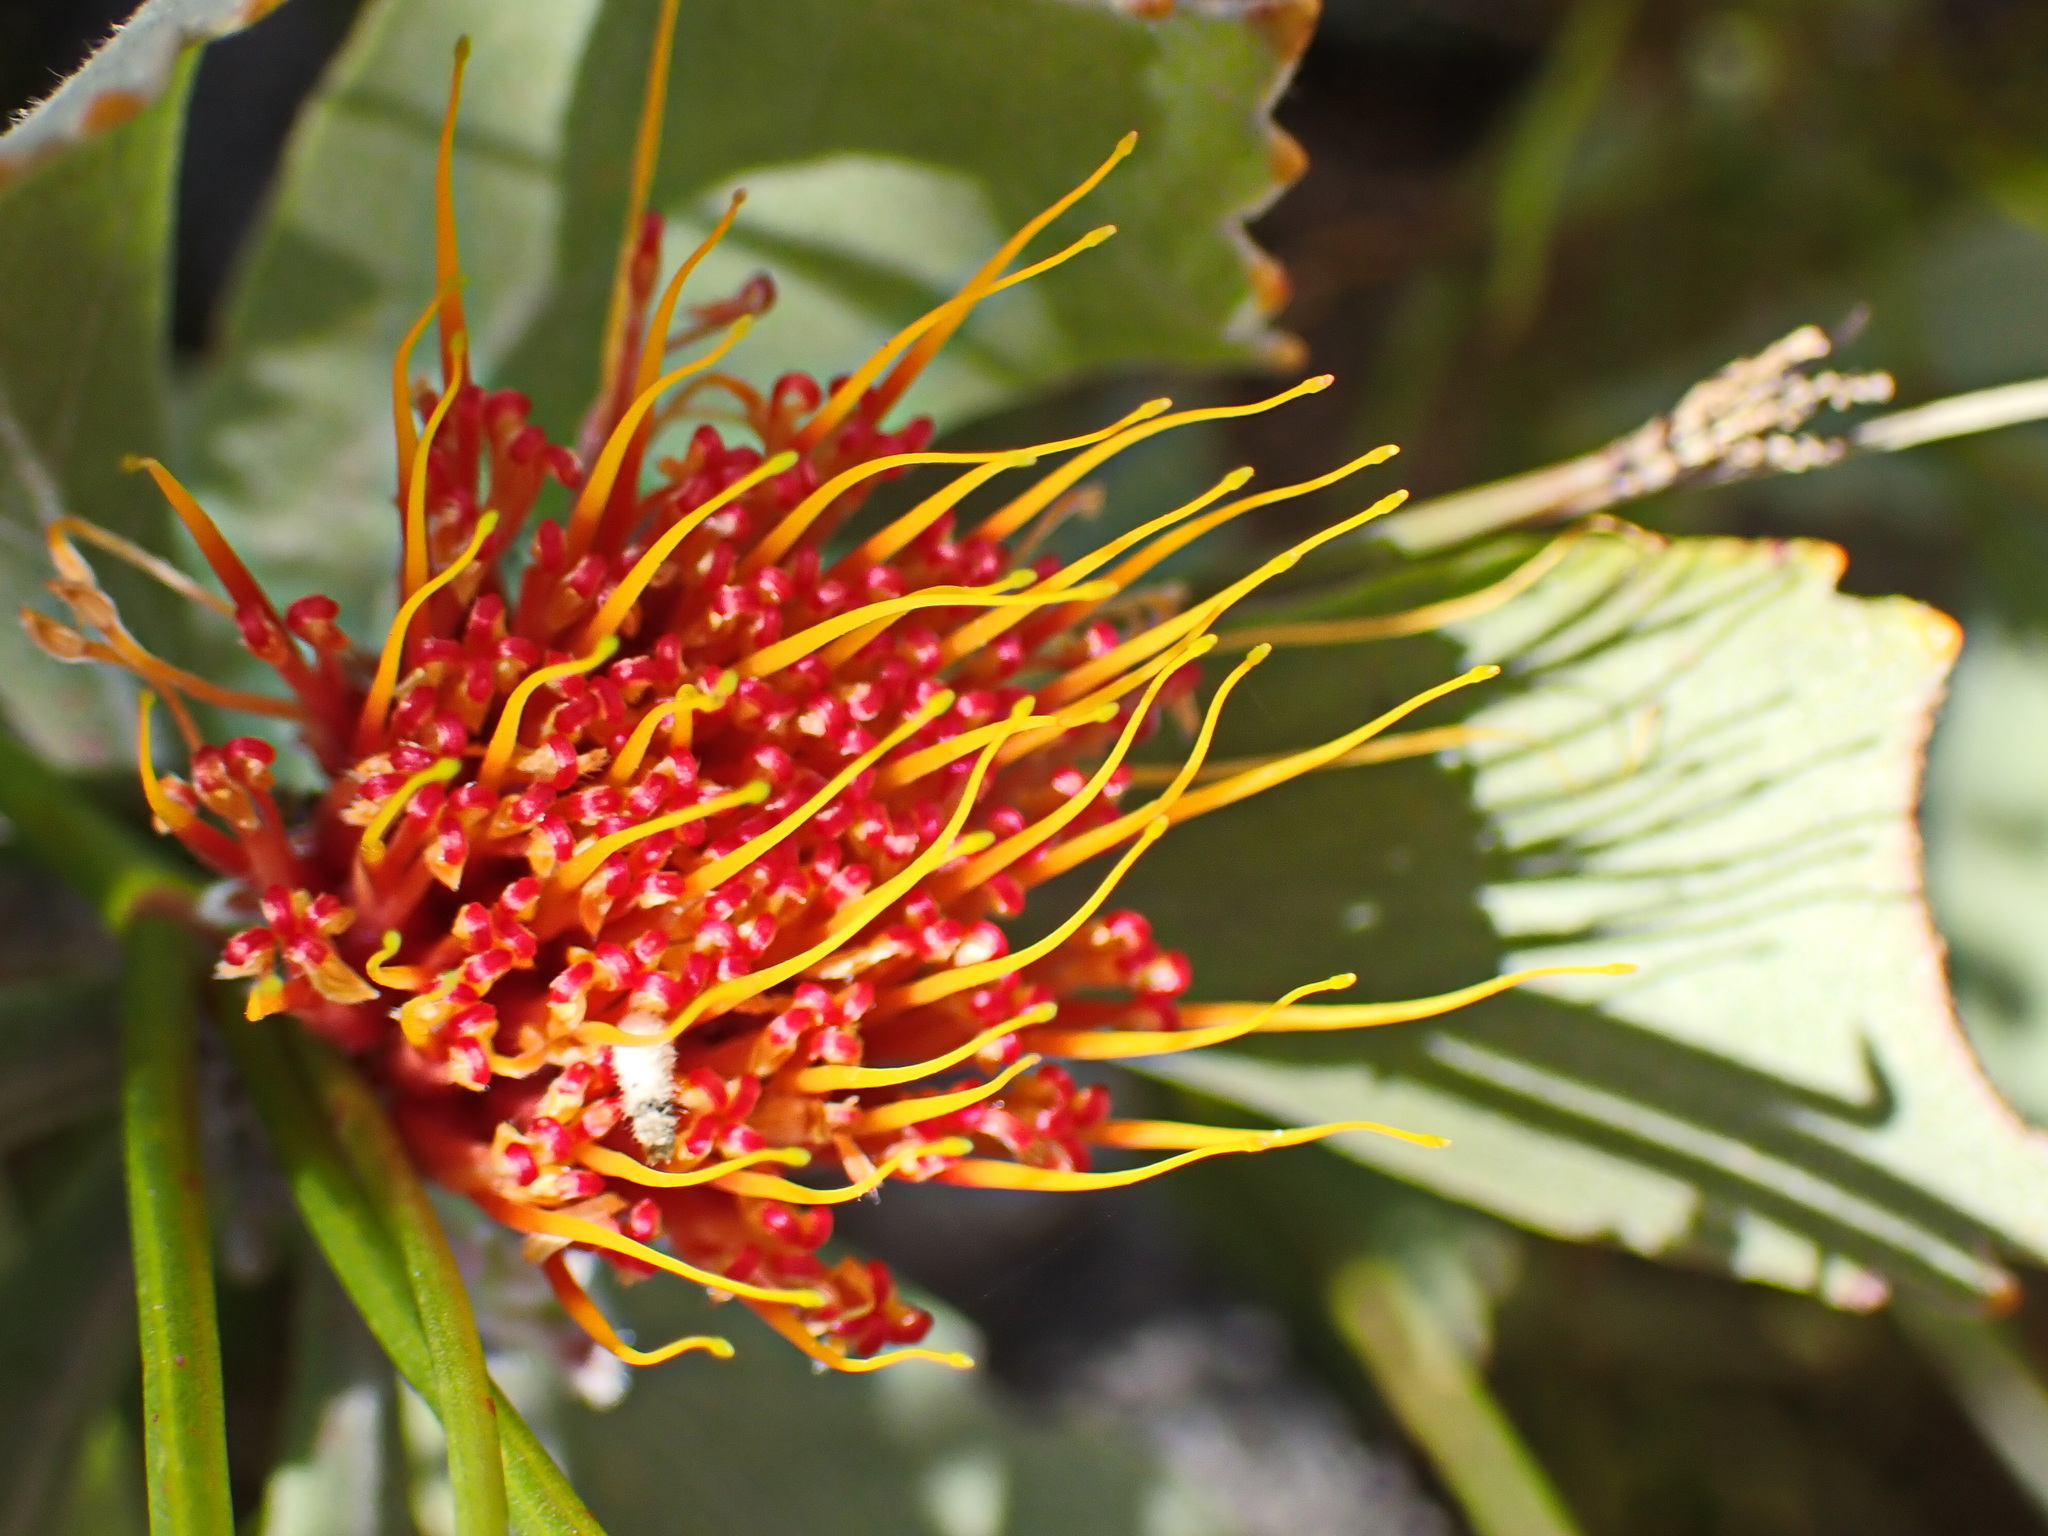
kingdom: Plantae
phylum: Tracheophyta
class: Magnoliopsida
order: Proteales
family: Proteaceae
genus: Leucospermum
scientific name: Leucospermum mundii
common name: Langeberg pincushion
